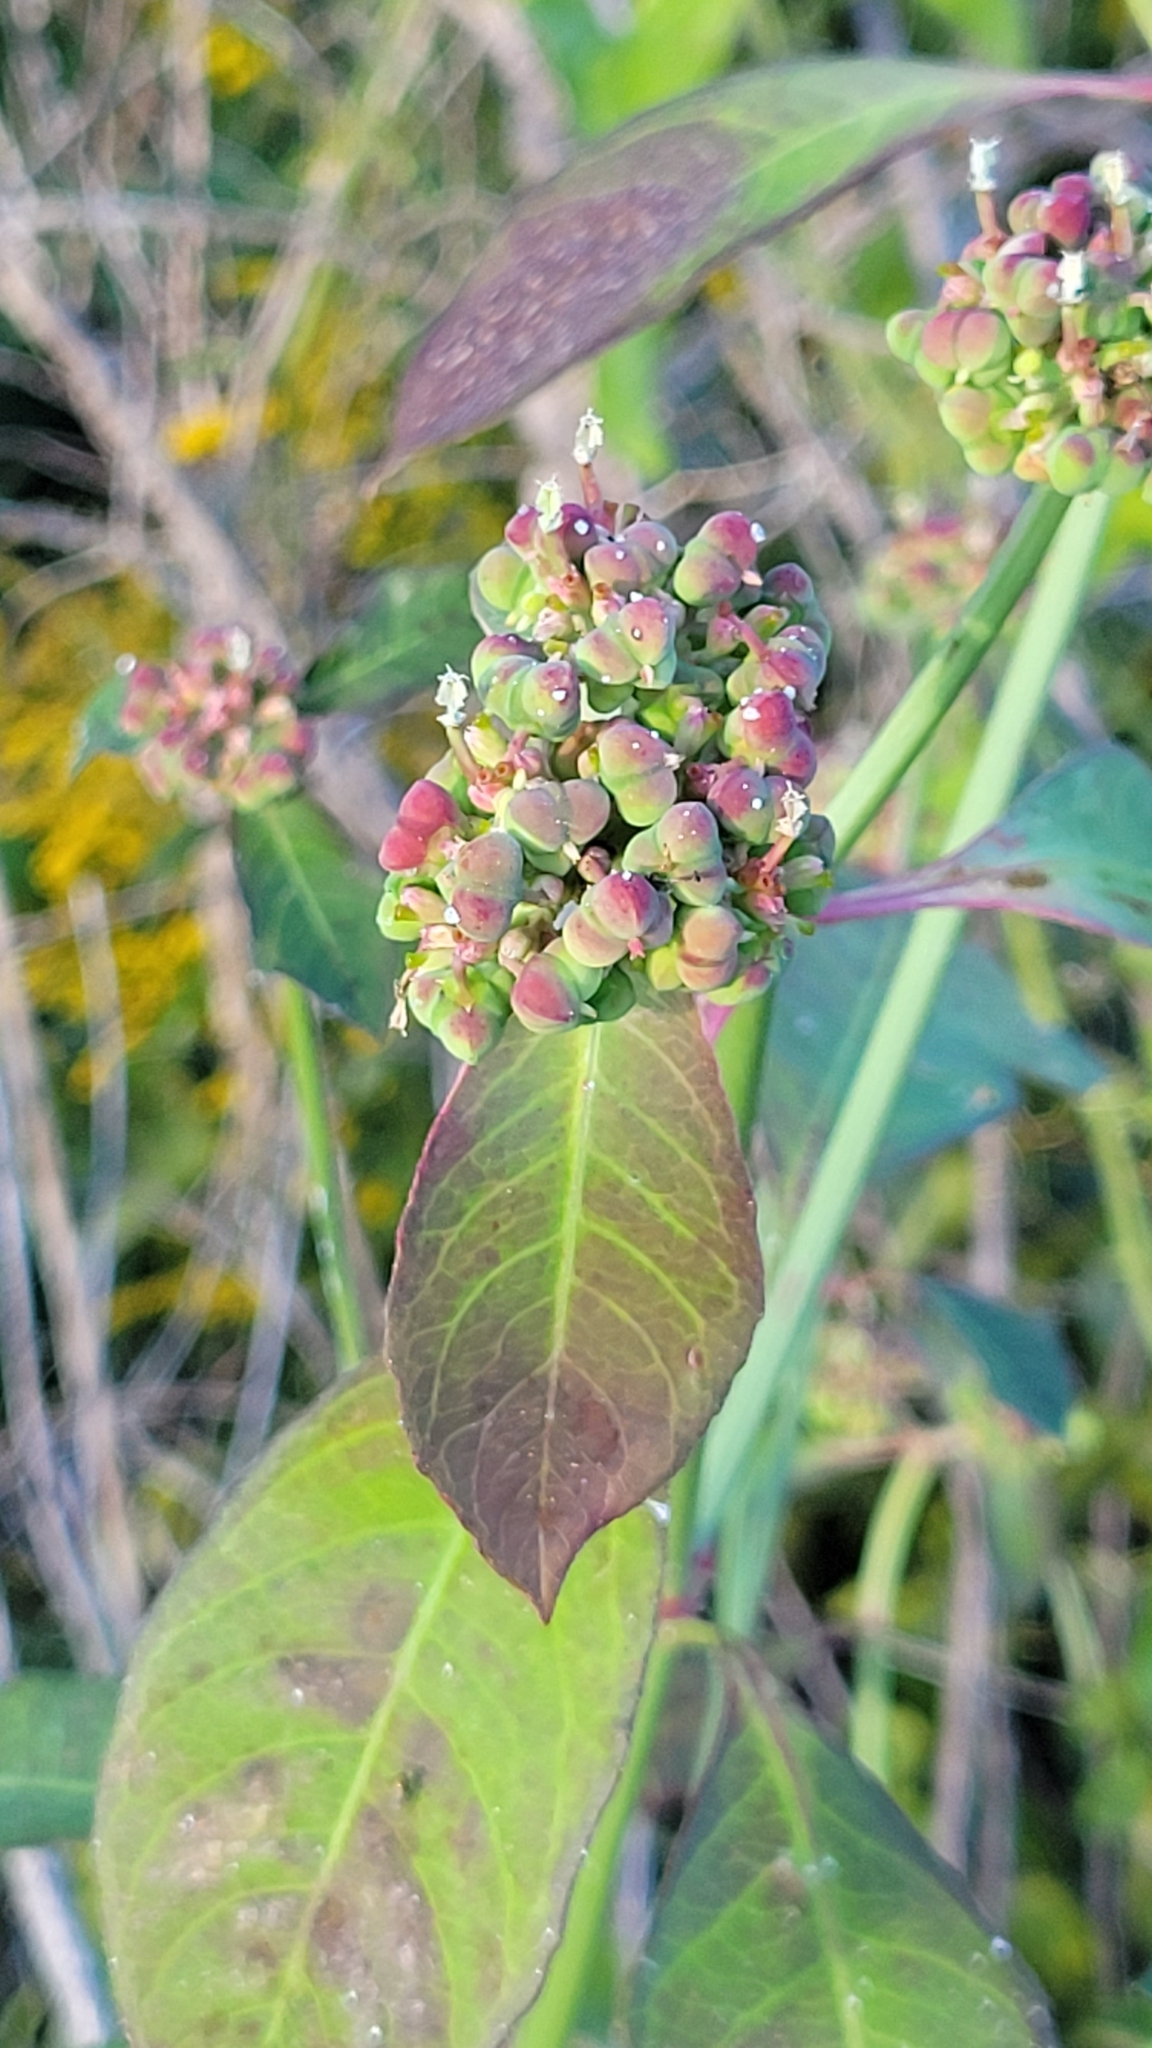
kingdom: Plantae
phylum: Tracheophyta
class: Magnoliopsida
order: Malpighiales
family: Euphorbiaceae
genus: Euphorbia
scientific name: Euphorbia heterophylla
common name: Mexican fireplant
